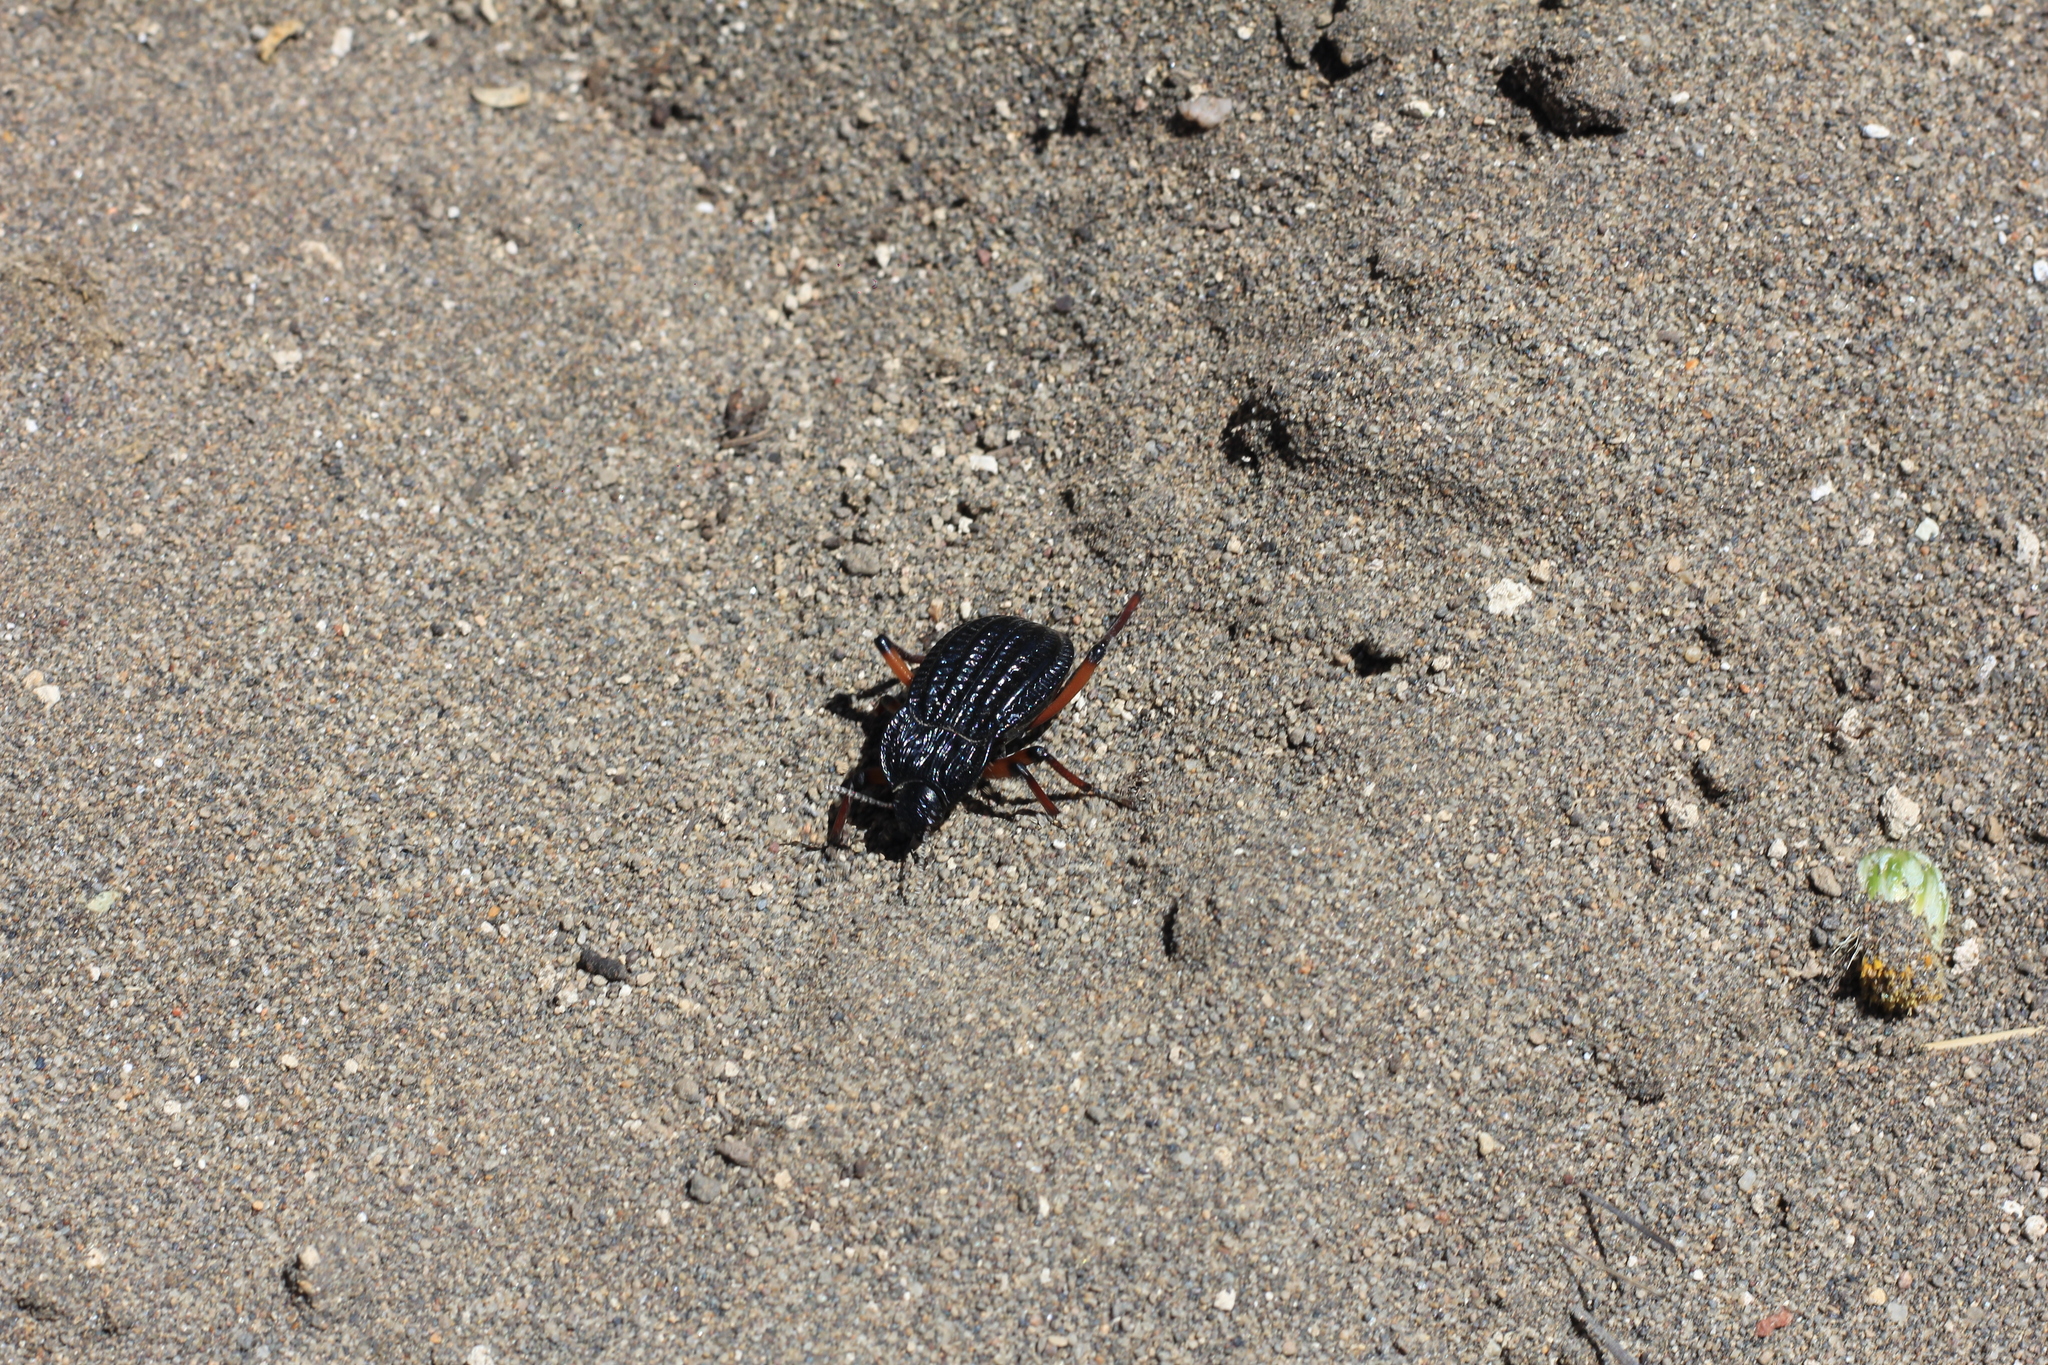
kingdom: Animalia
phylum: Arthropoda
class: Insecta
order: Coleoptera
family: Tenebrionidae
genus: Epipedonota
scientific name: Epipedonota
